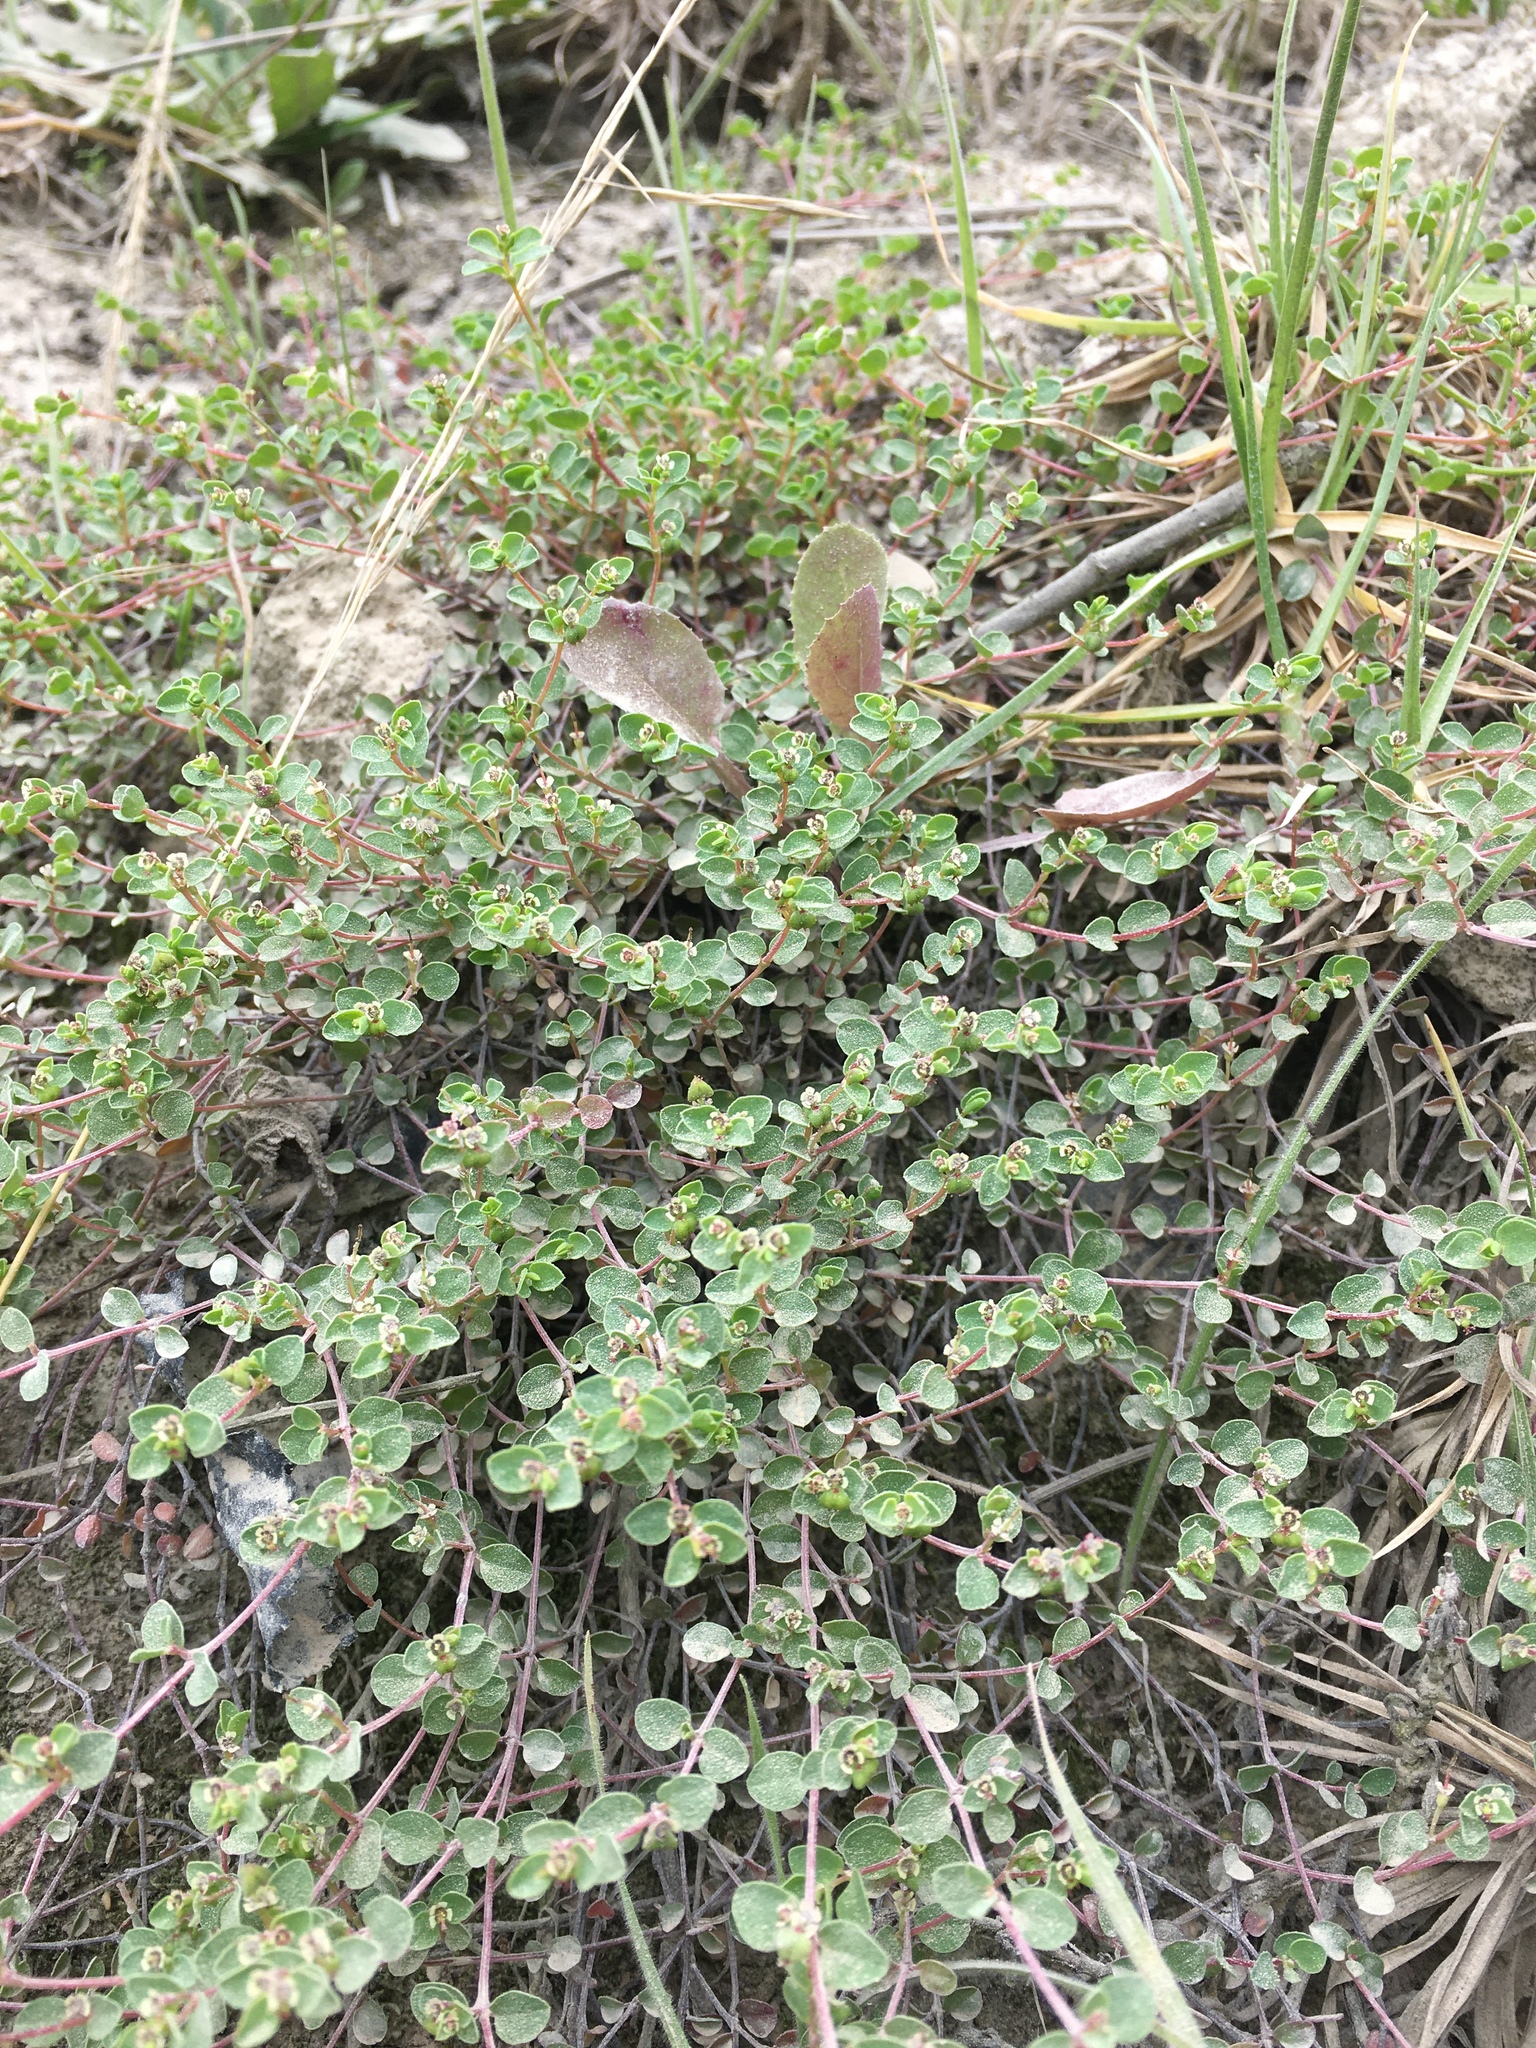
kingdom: Plantae
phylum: Tracheophyta
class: Magnoliopsida
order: Malpighiales
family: Euphorbiaceae
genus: Euphorbia
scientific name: Euphorbia orbiculata
